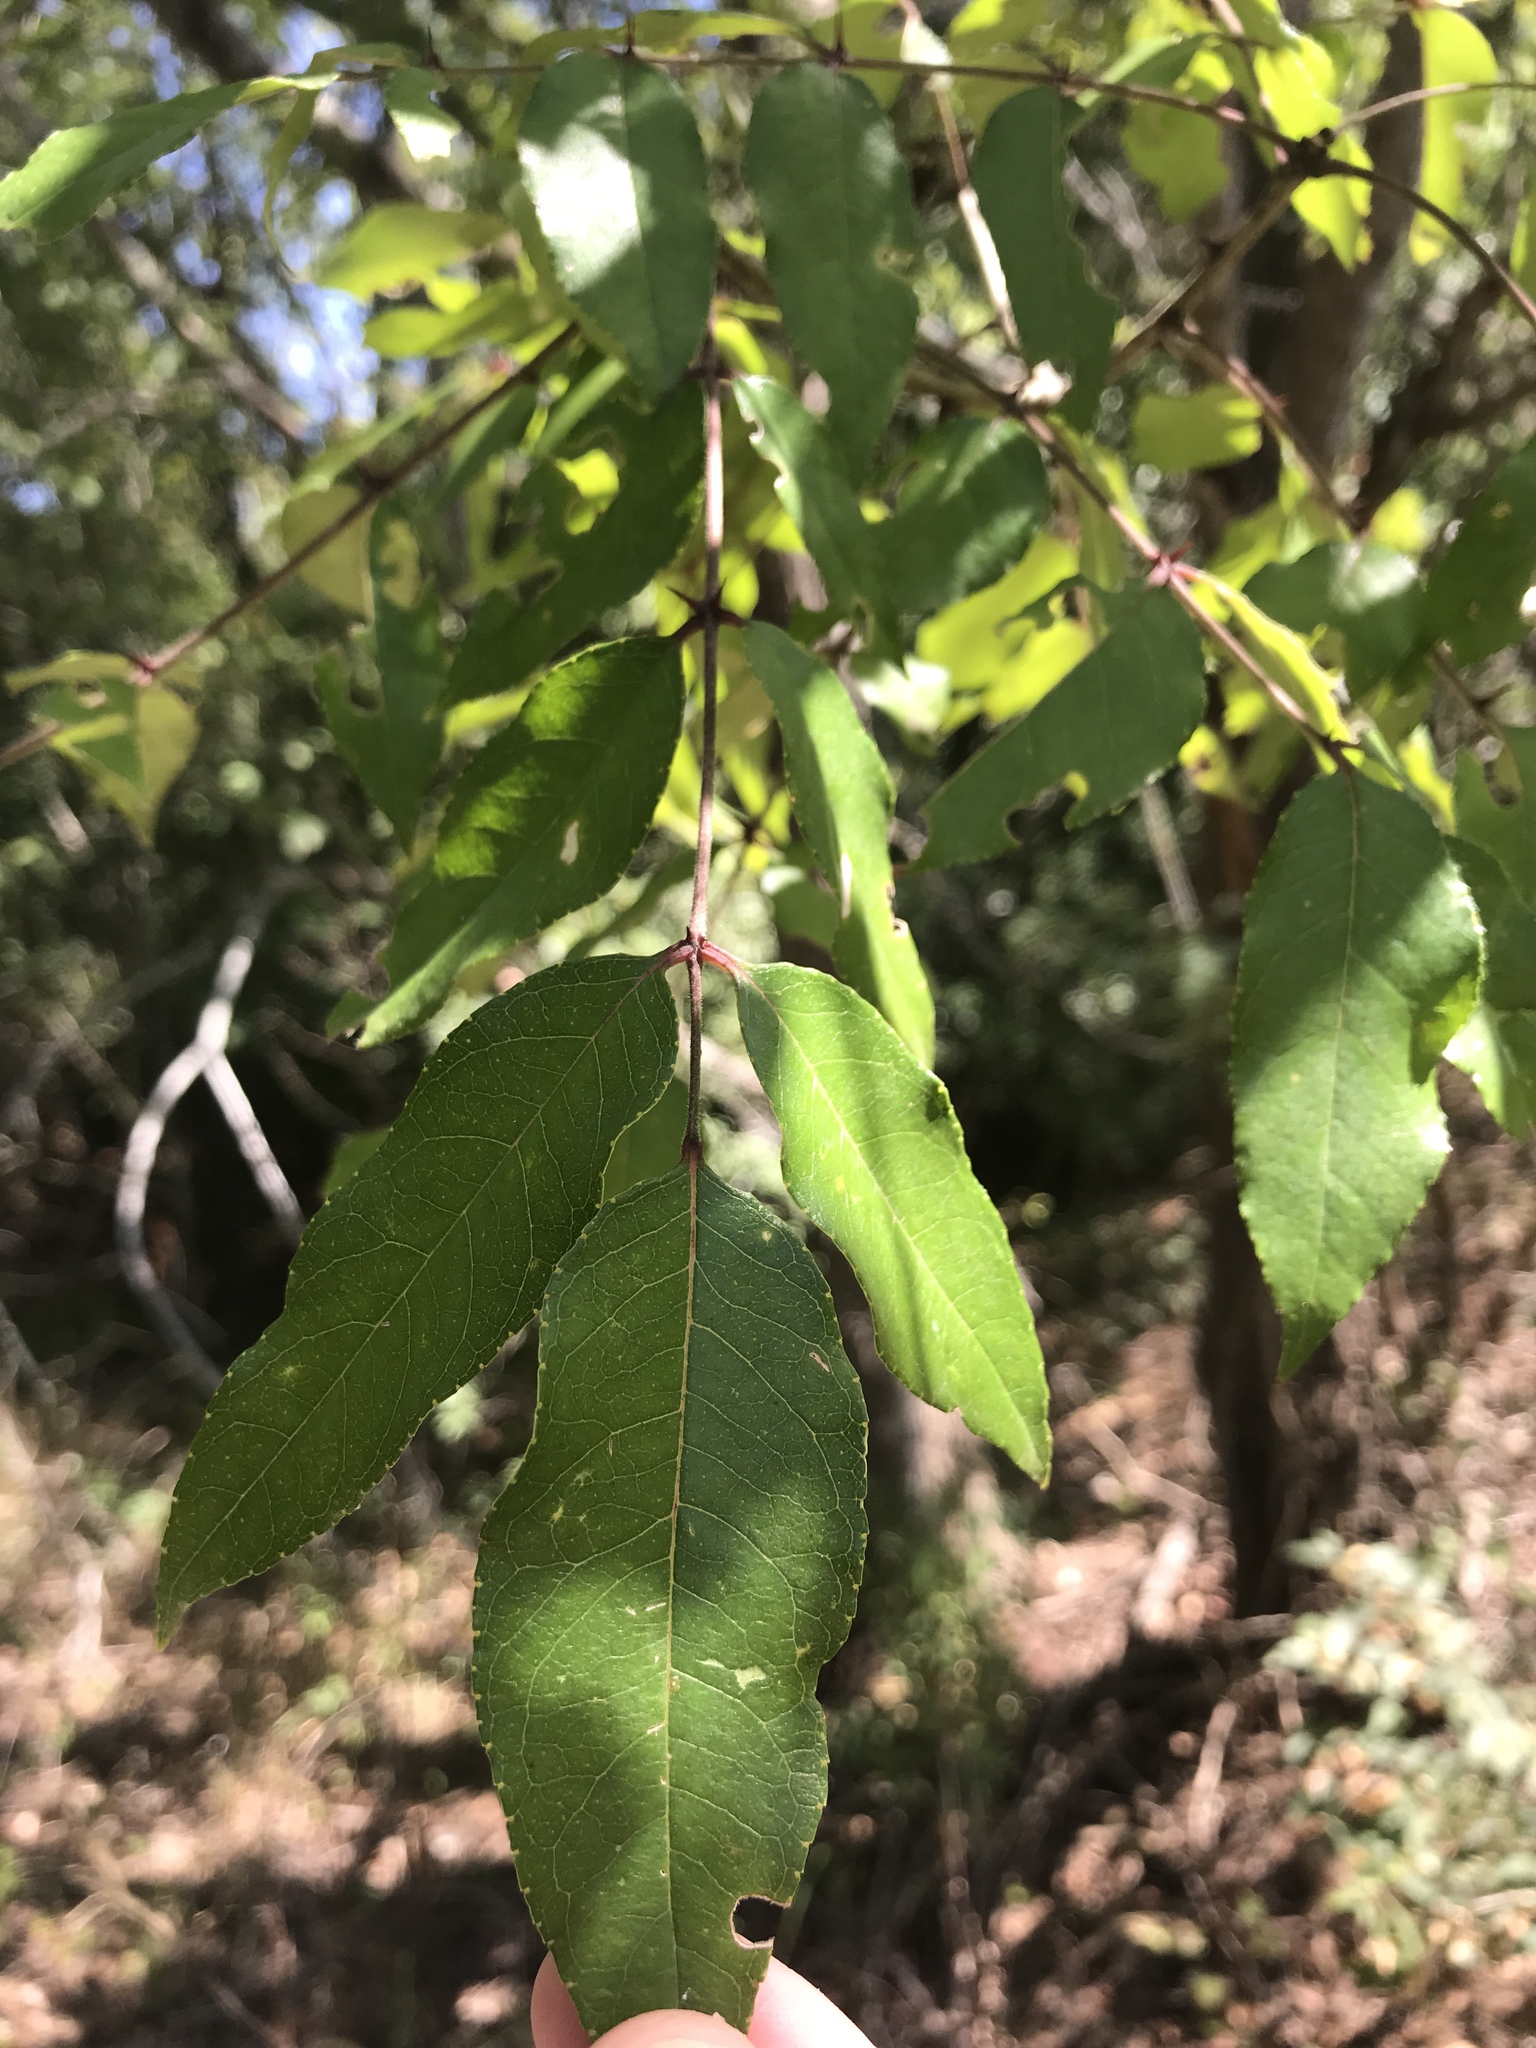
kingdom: Plantae
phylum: Tracheophyta
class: Magnoliopsida
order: Sapindales
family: Rutaceae
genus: Zanthoxylum
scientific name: Zanthoxylum clava-herculis
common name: Hercules'-club
